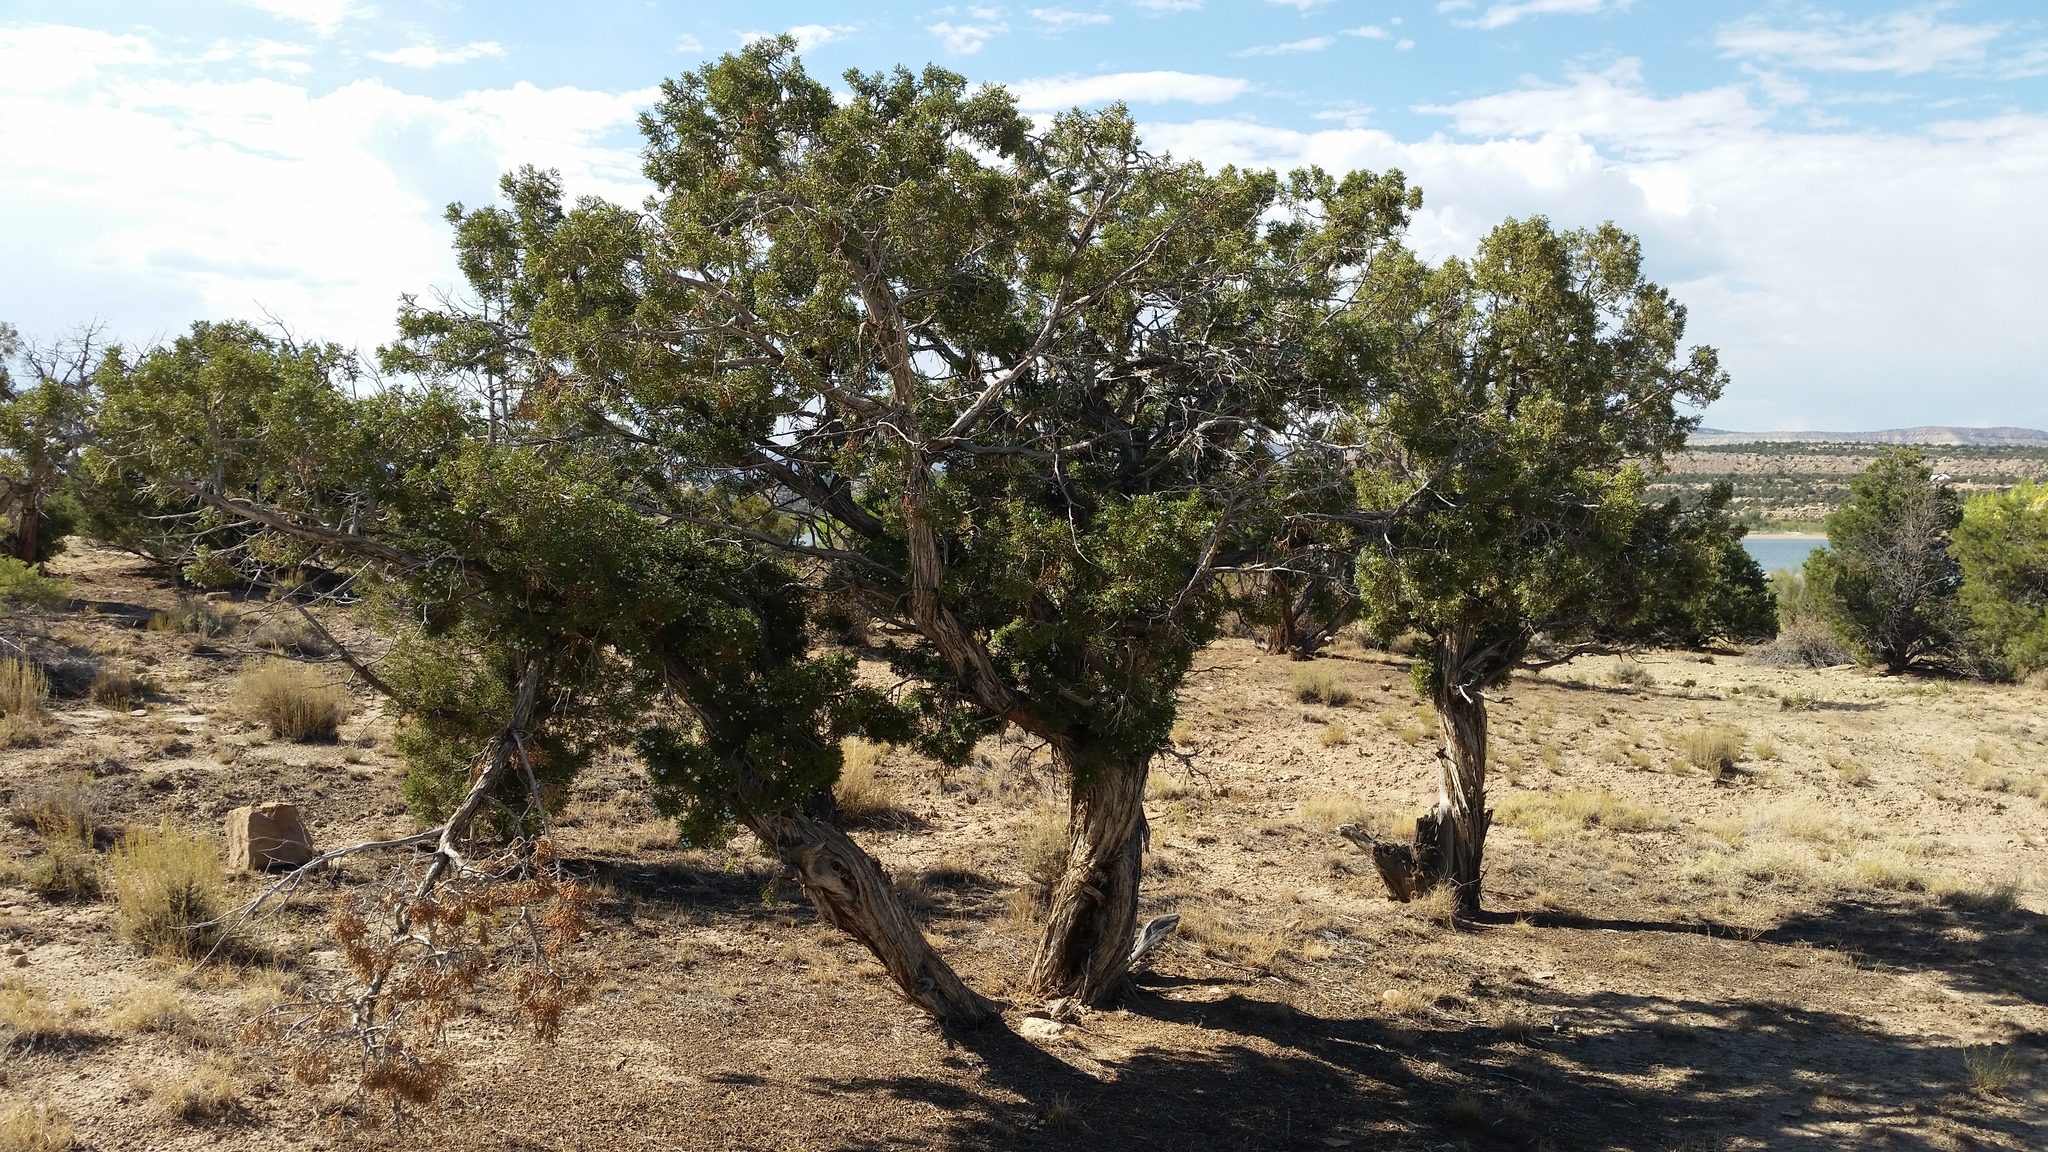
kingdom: Plantae
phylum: Tracheophyta
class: Pinopsida
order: Pinales
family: Cupressaceae
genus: Juniperus
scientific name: Juniperus osteosperma
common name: Utah juniper
